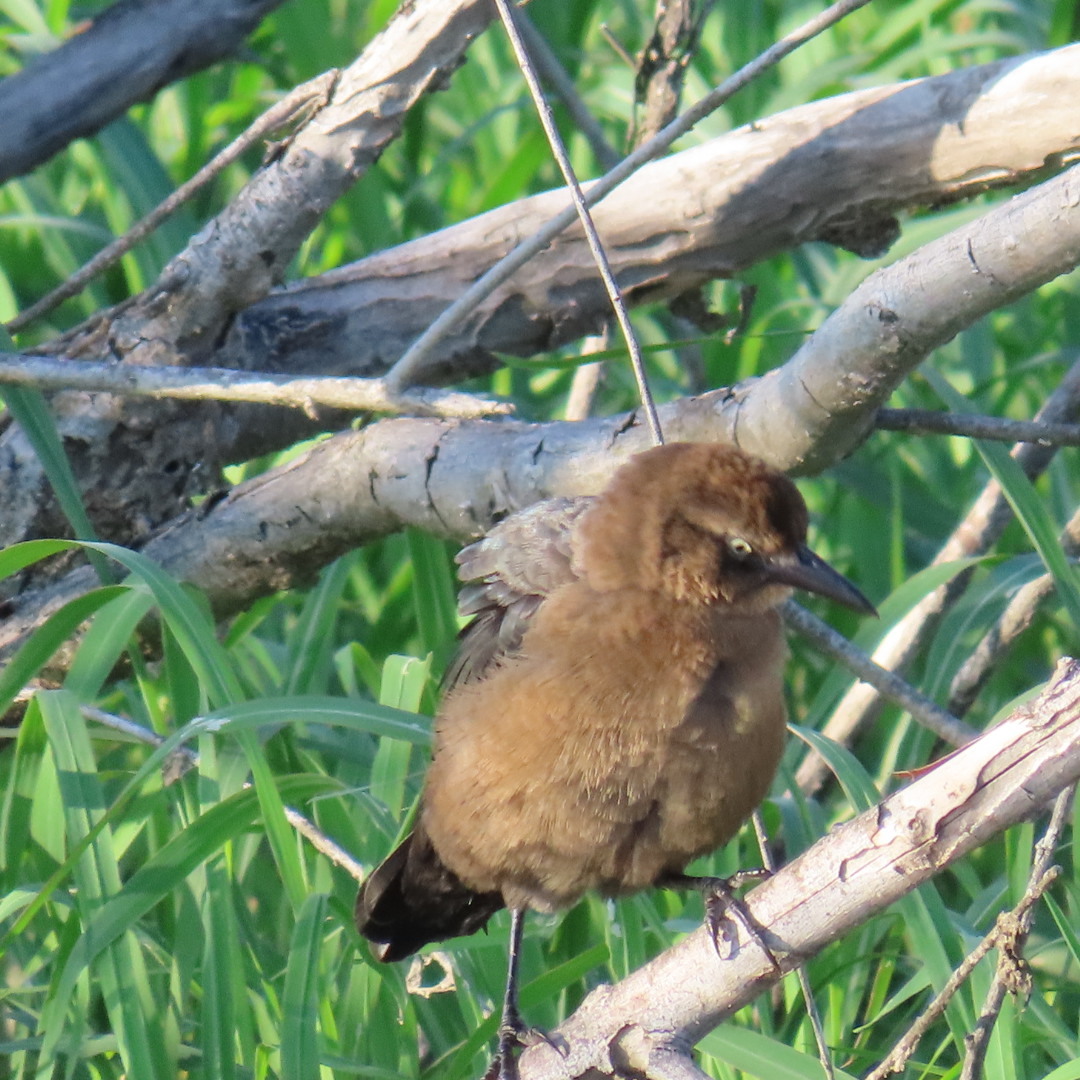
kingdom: Animalia
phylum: Chordata
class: Aves
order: Passeriformes
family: Icteridae
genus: Quiscalus
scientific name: Quiscalus mexicanus
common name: Great-tailed grackle
